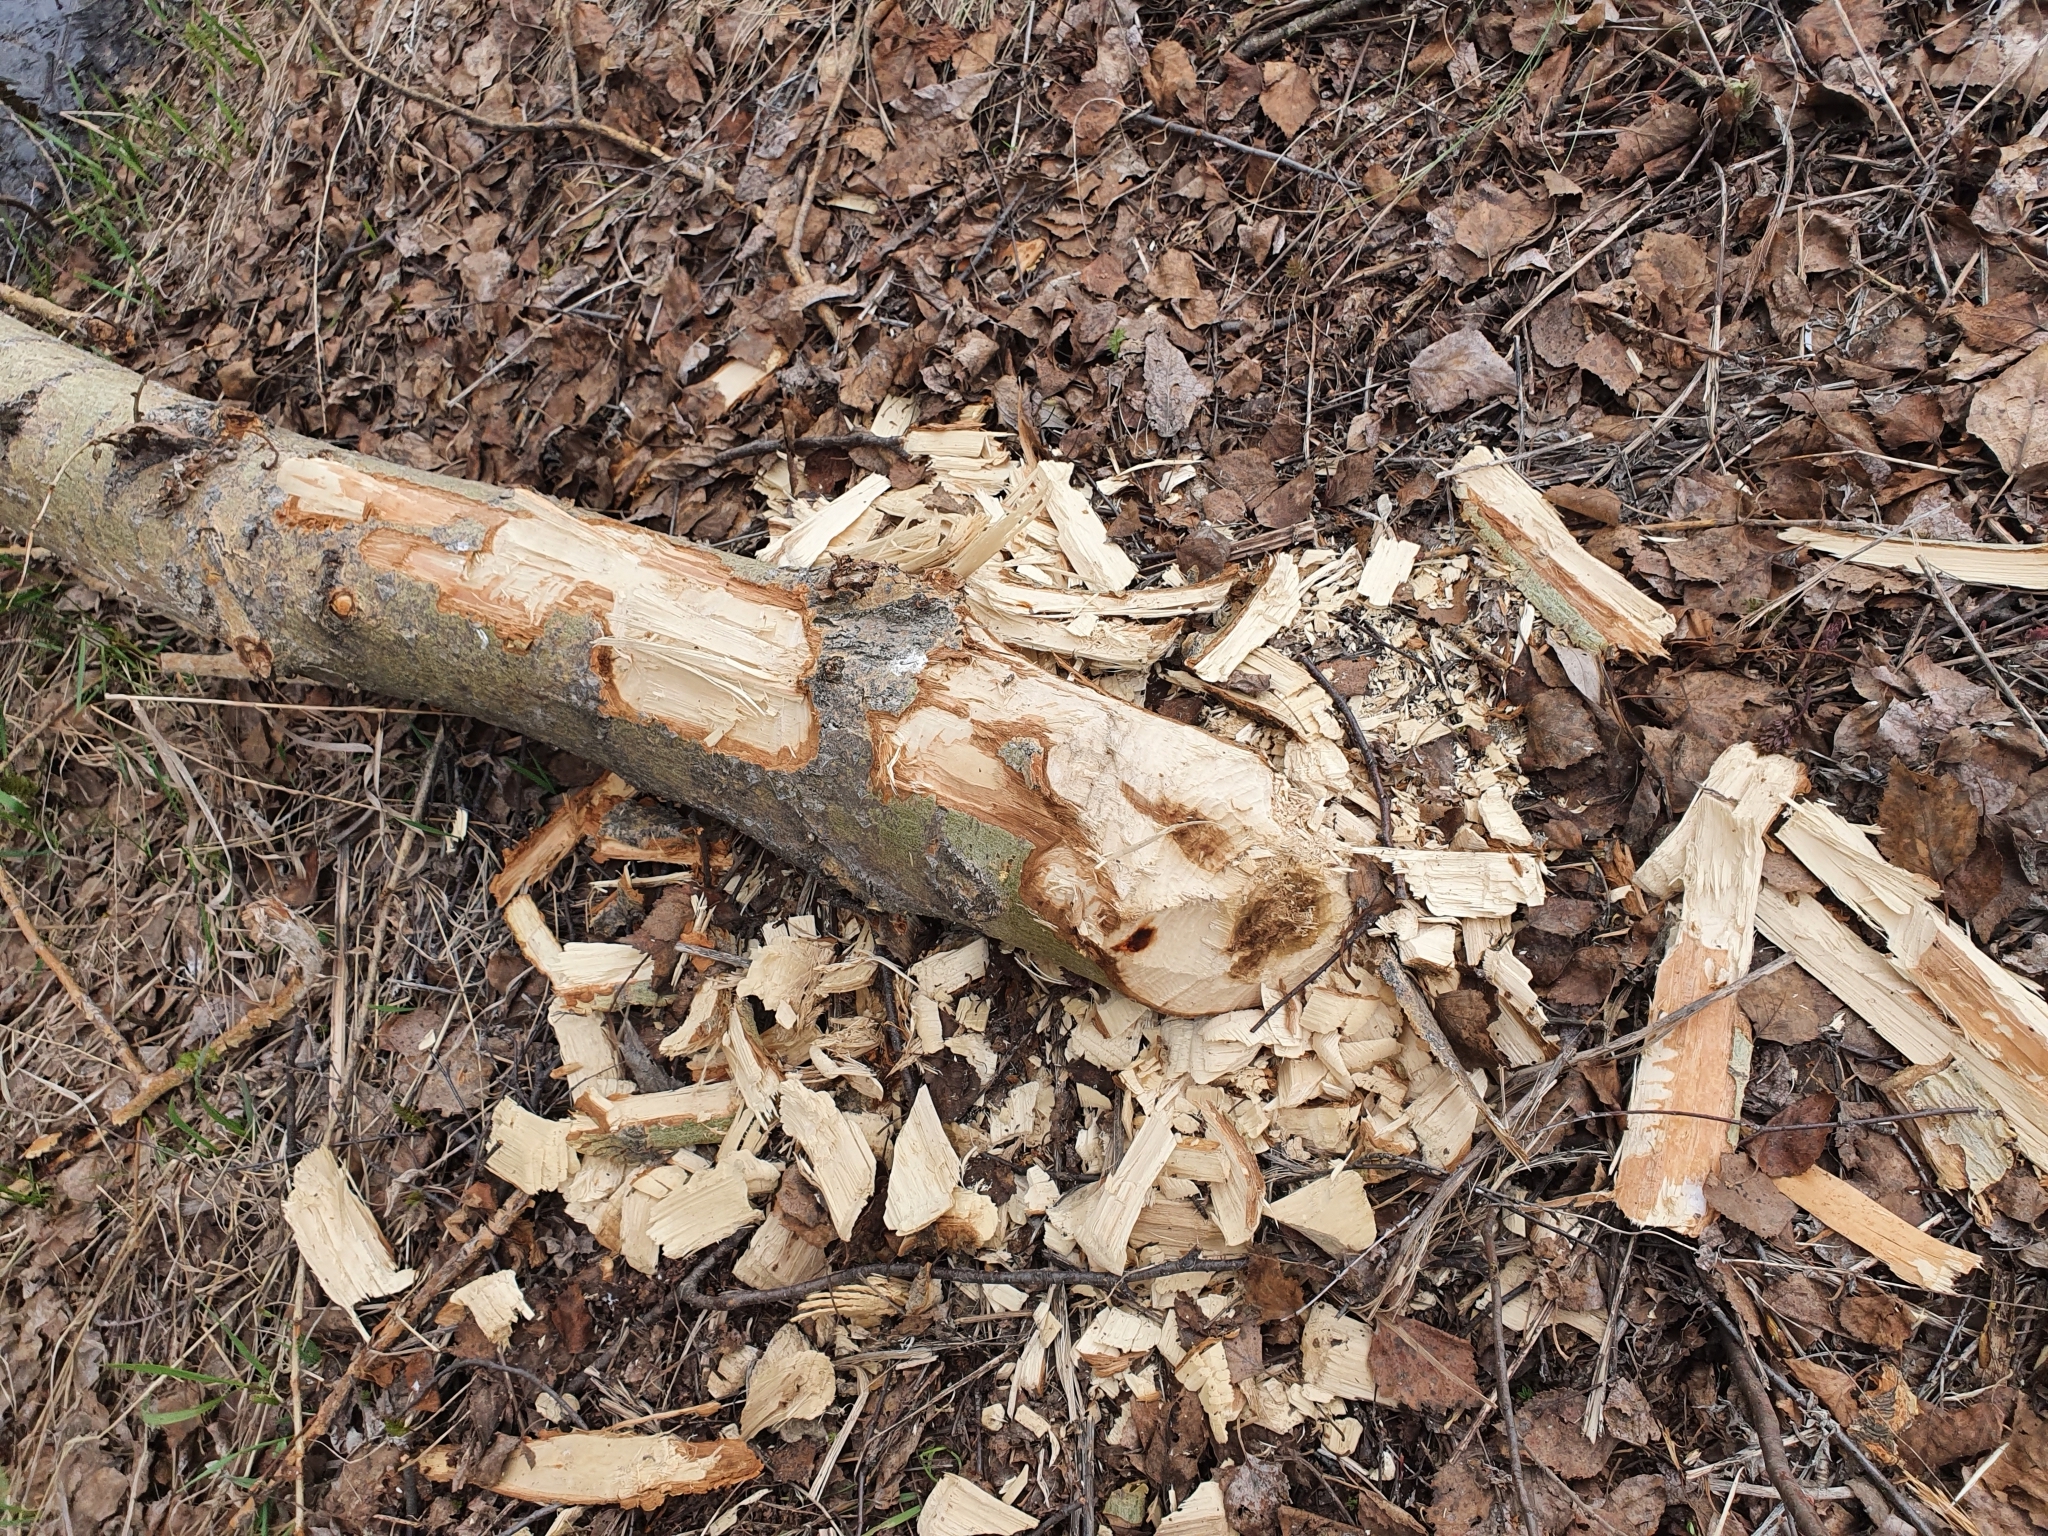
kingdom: Animalia
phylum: Chordata
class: Mammalia
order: Rodentia
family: Castoridae
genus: Castor
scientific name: Castor fiber
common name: Eurasian beaver
